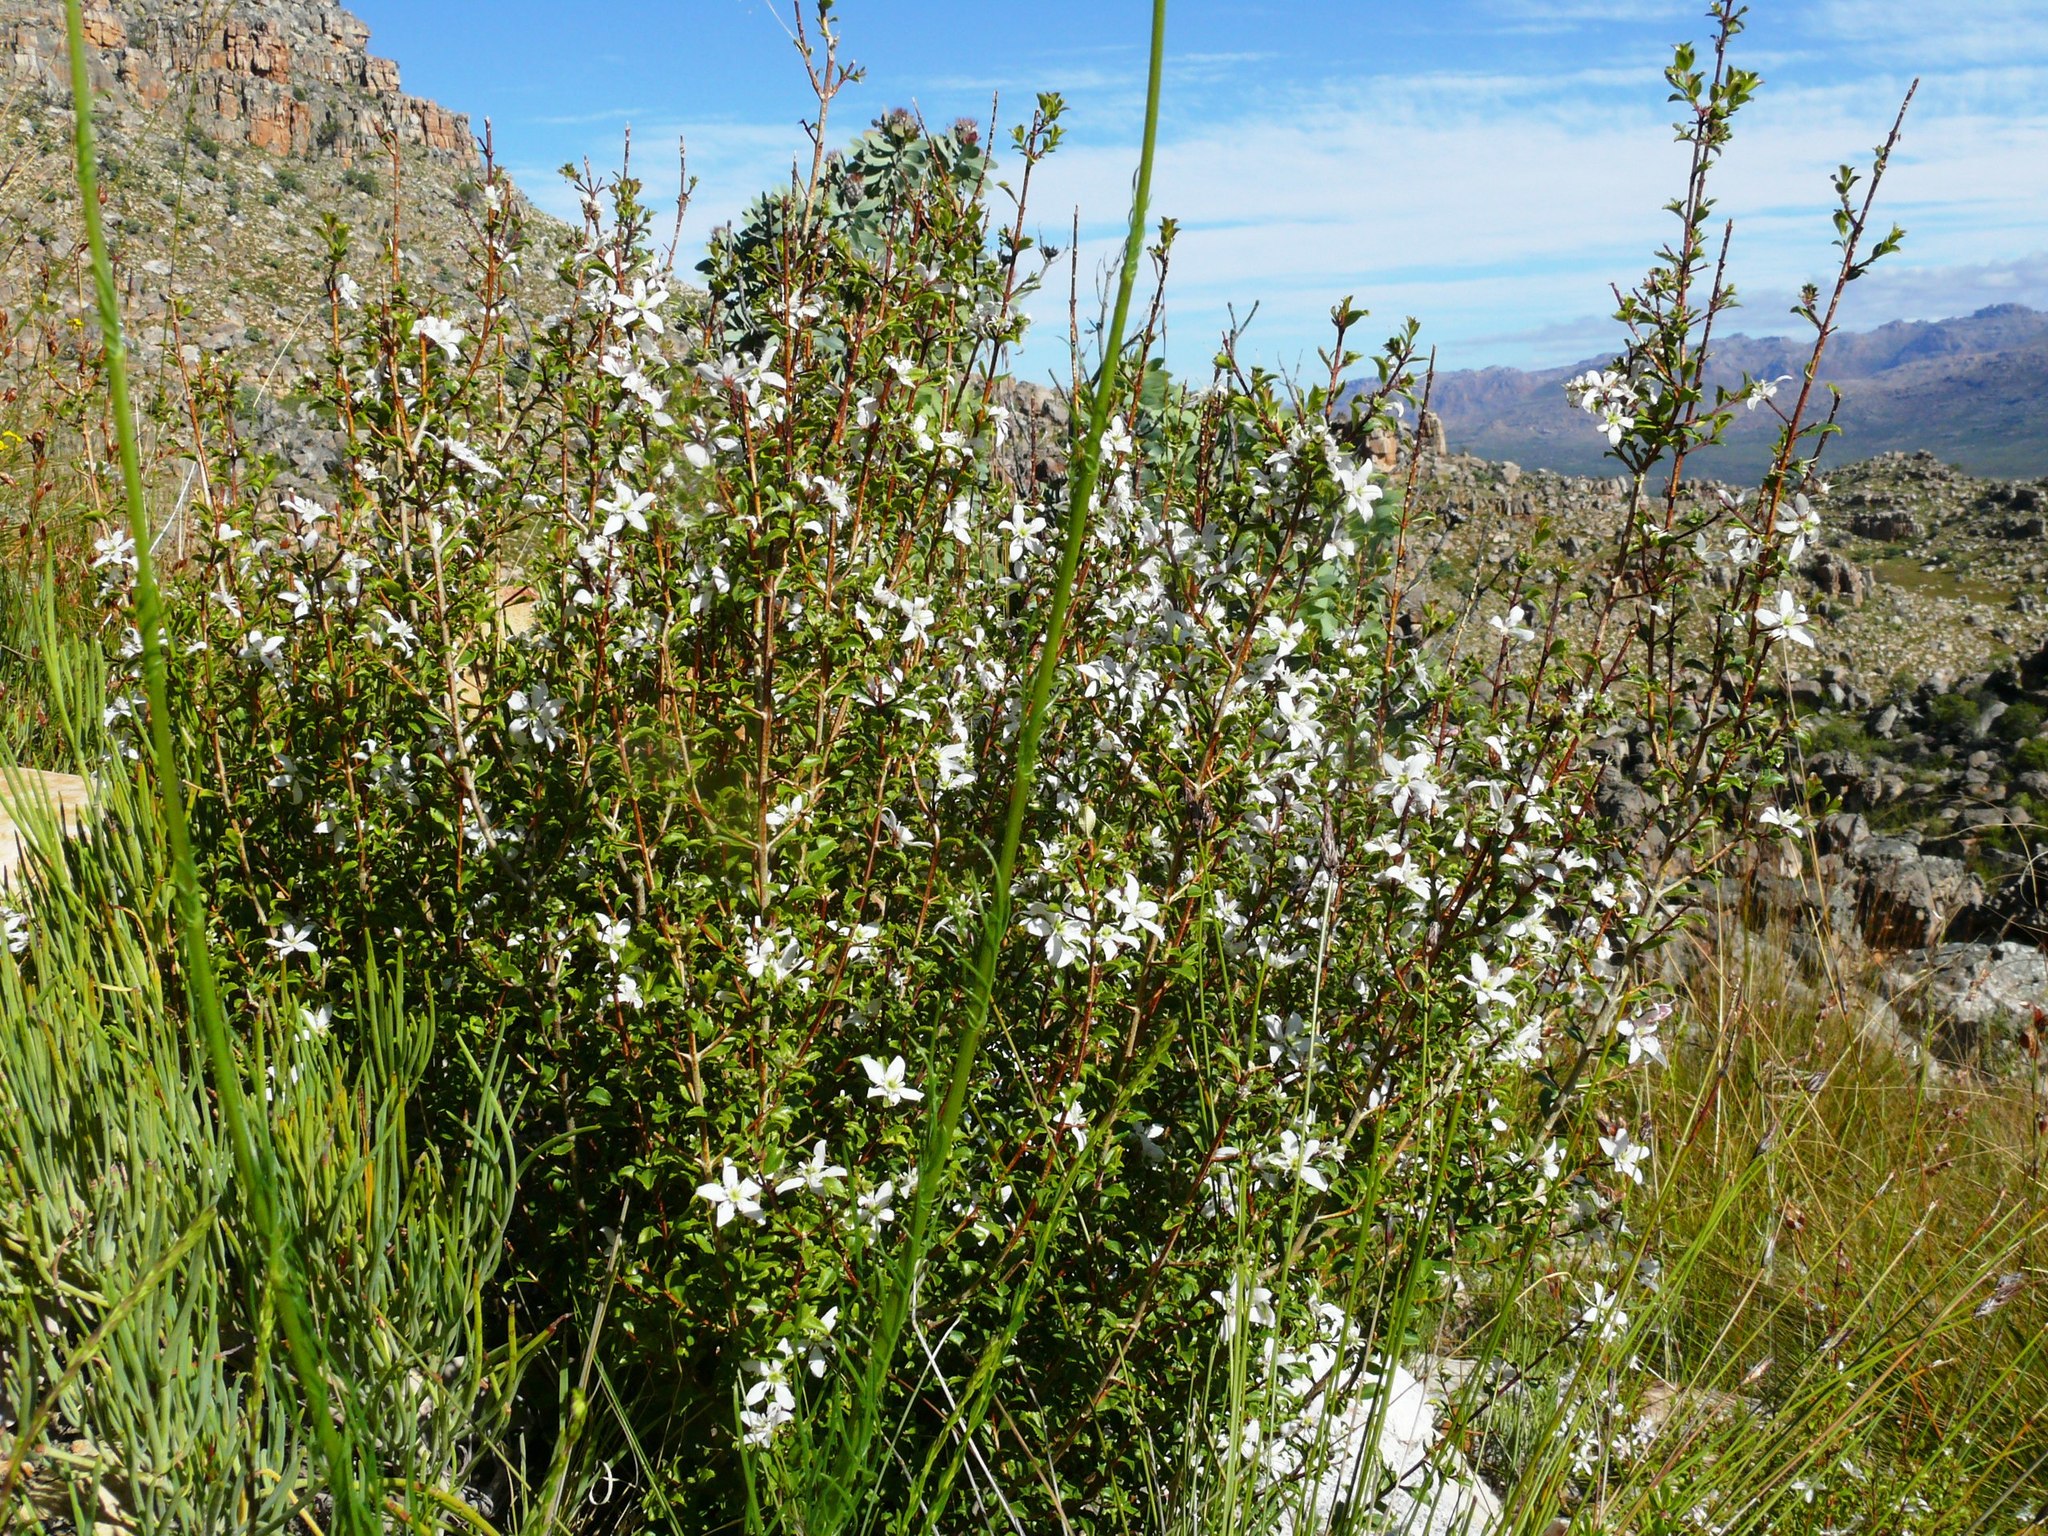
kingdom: Plantae
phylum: Tracheophyta
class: Magnoliopsida
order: Sapindales
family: Rutaceae
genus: Agathosma
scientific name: Agathosma betulina
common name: Mountain buchu
